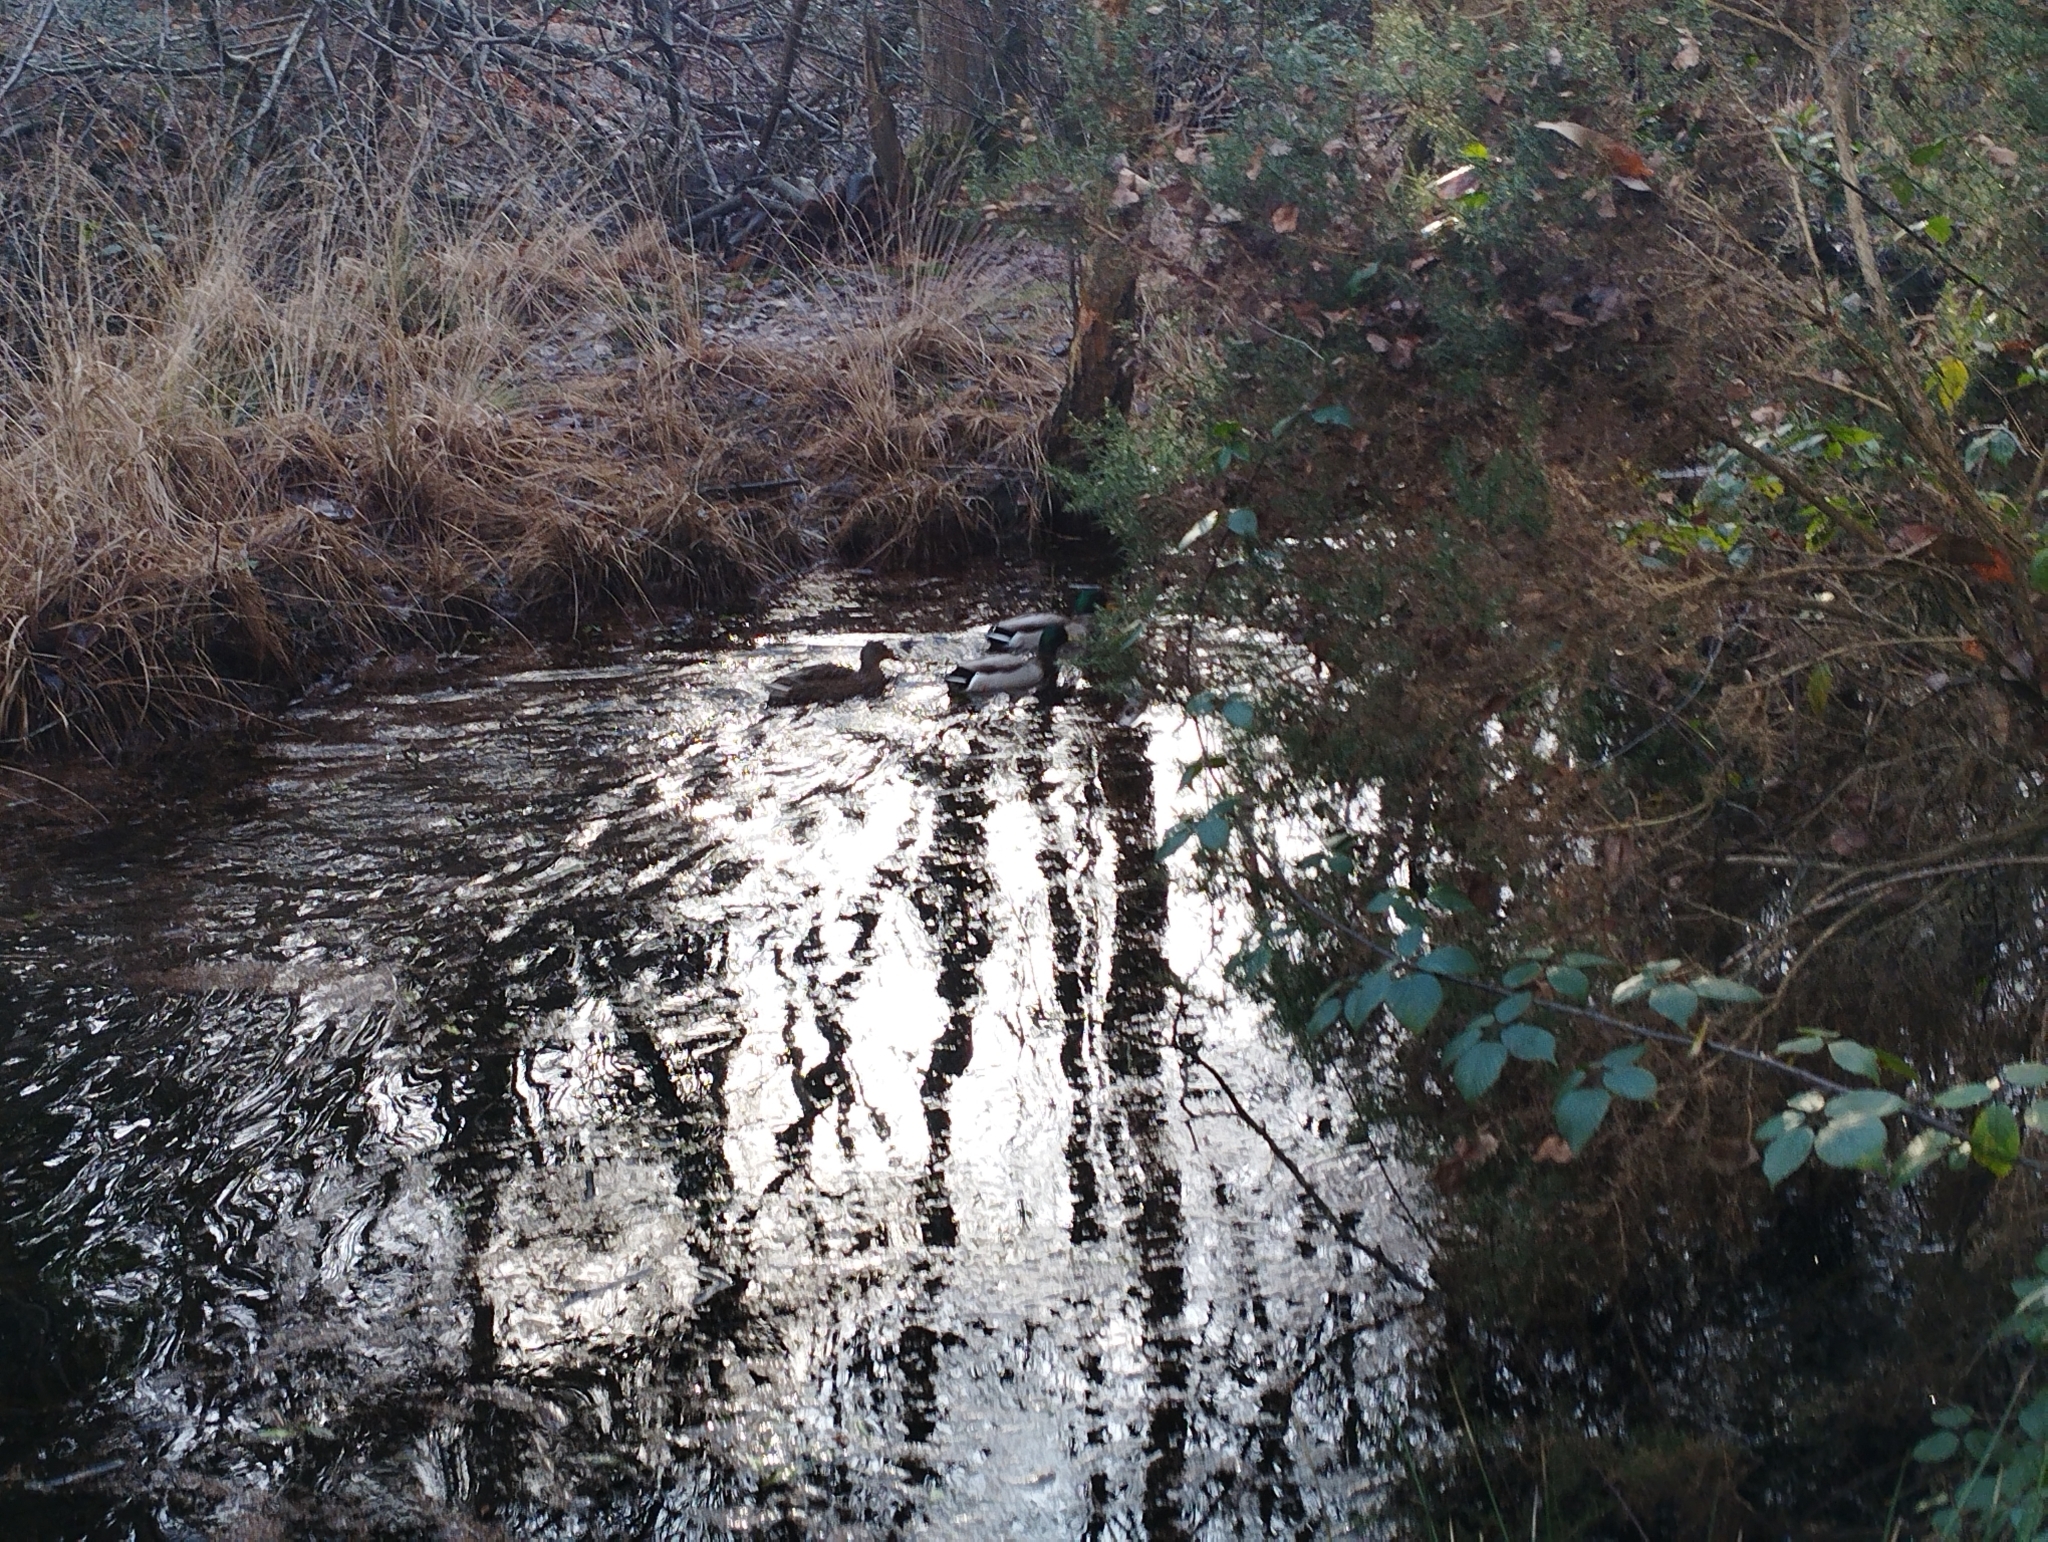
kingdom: Animalia
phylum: Chordata
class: Aves
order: Anseriformes
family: Anatidae
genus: Anas
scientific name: Anas platyrhynchos
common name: Mallard
